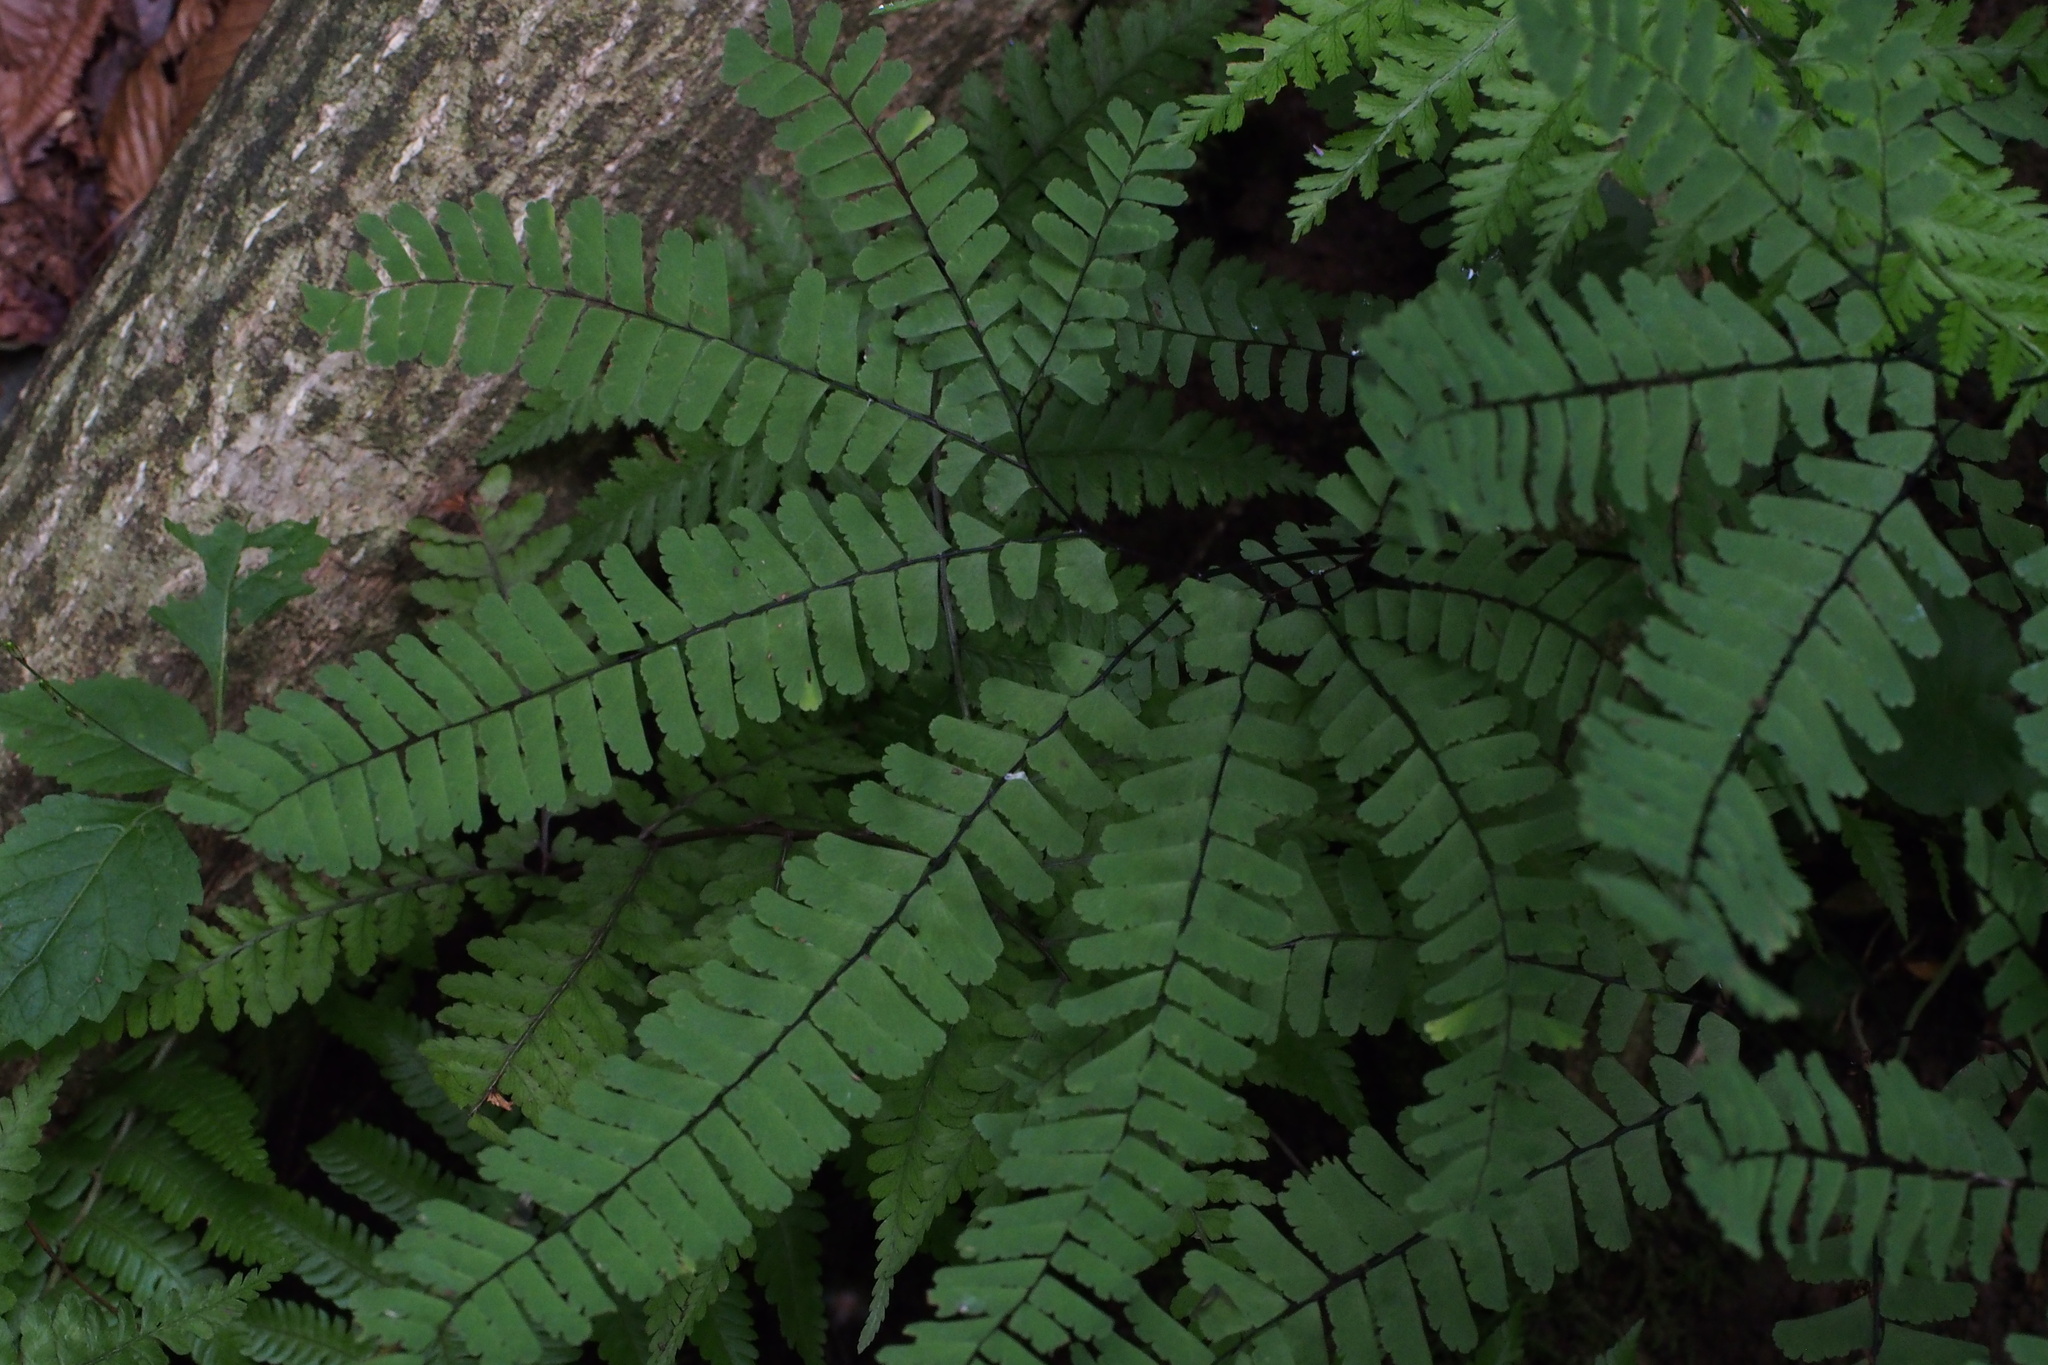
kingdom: Plantae
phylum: Tracheophyta
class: Polypodiopsida
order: Polypodiales
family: Pteridaceae
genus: Adiantum
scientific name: Adiantum pedatum
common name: Five-finger fern
